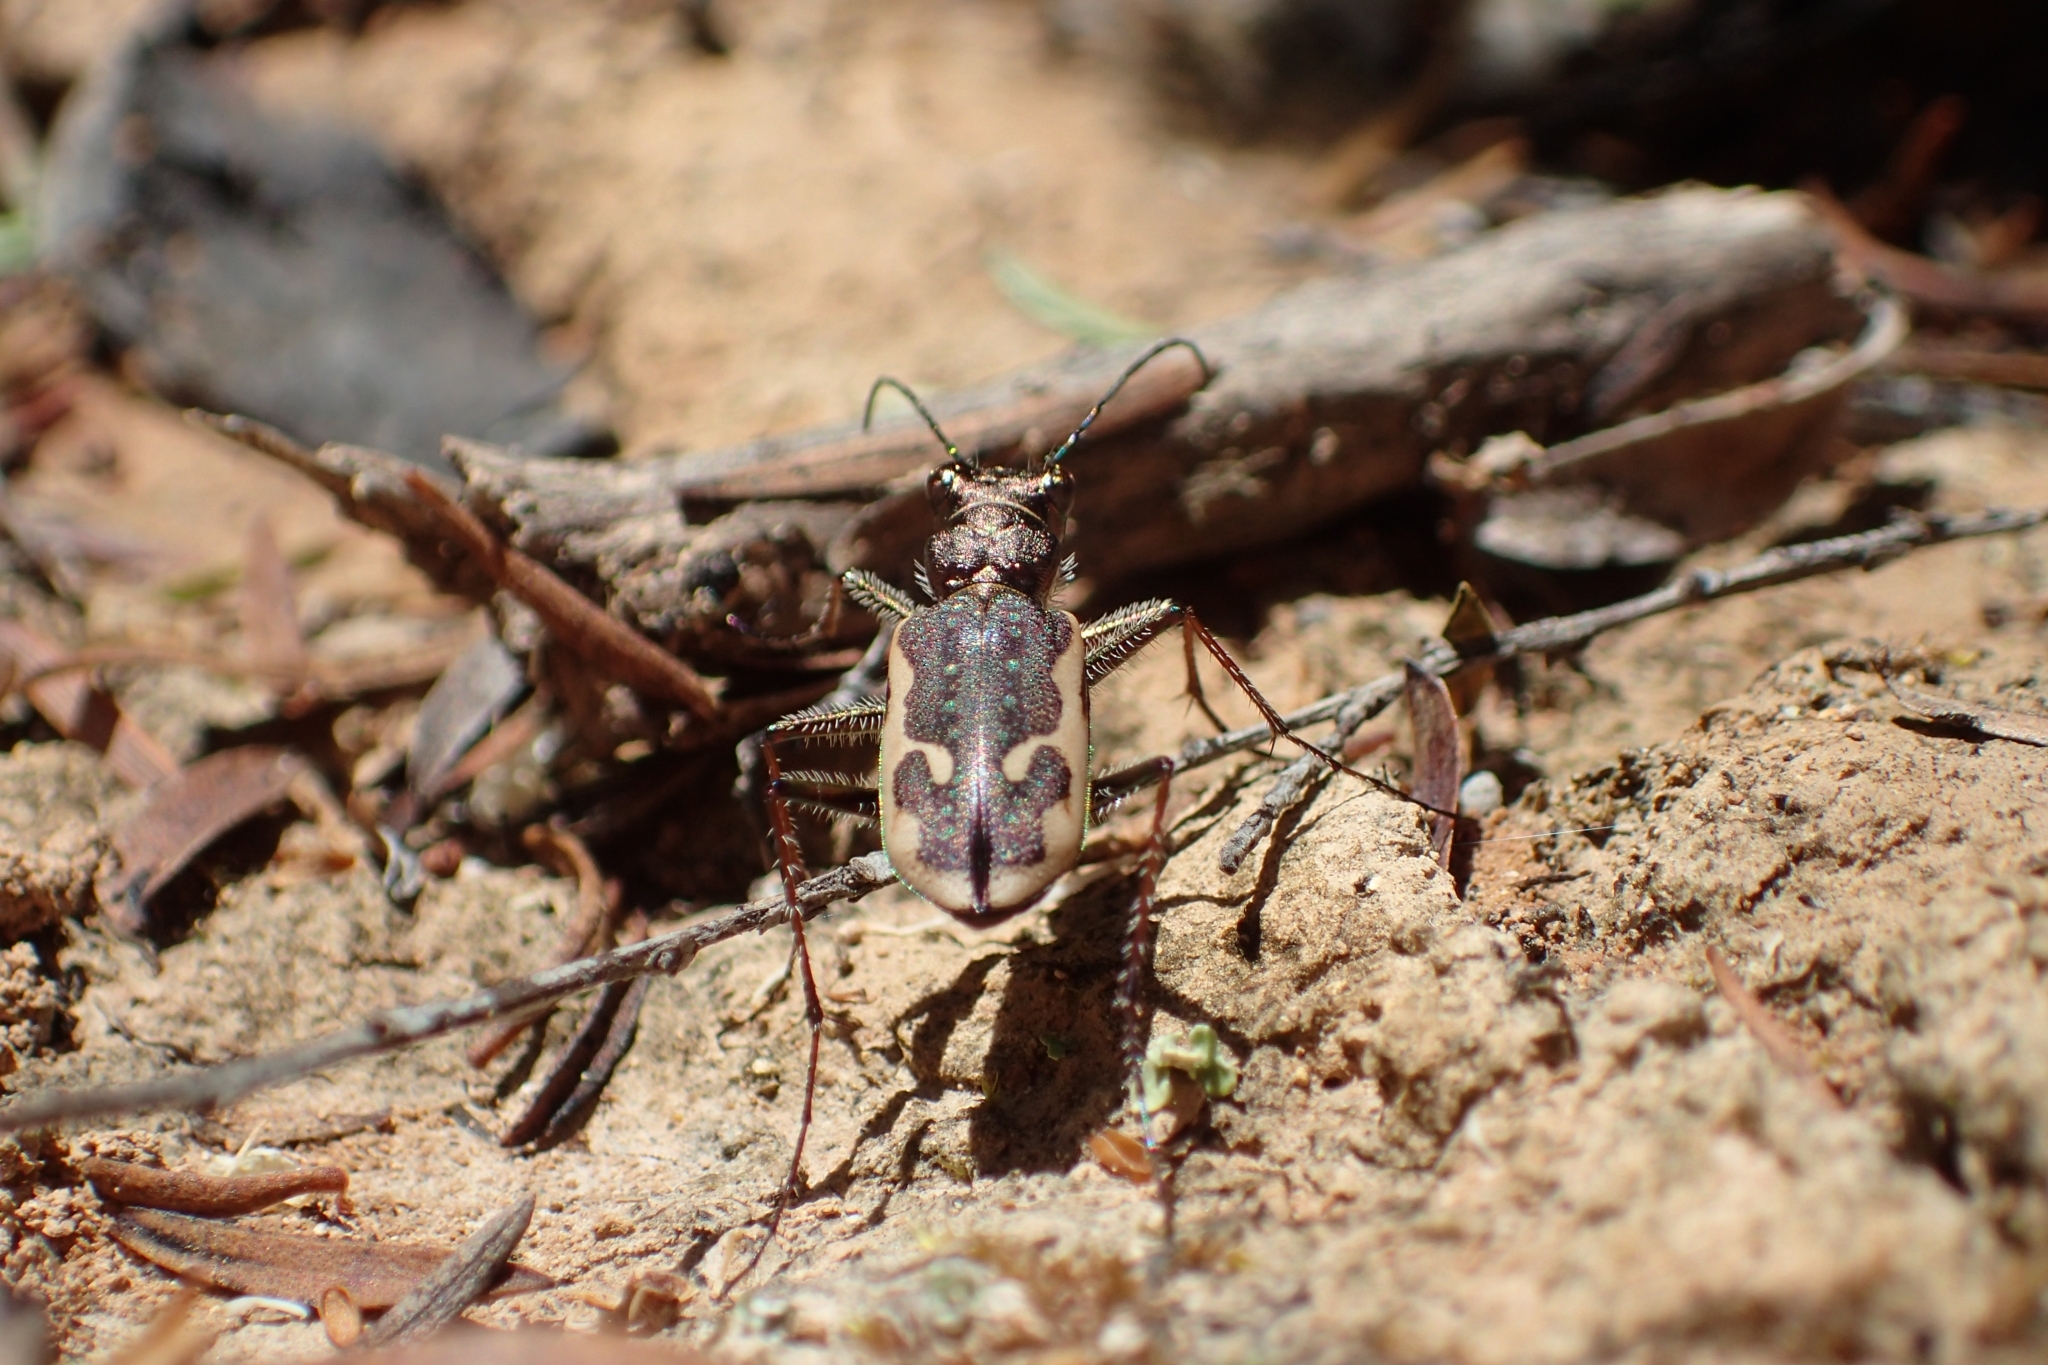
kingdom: Animalia
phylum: Arthropoda
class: Insecta
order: Coleoptera
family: Carabidae
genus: Neocicindela
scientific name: Neocicindela tuberculata
